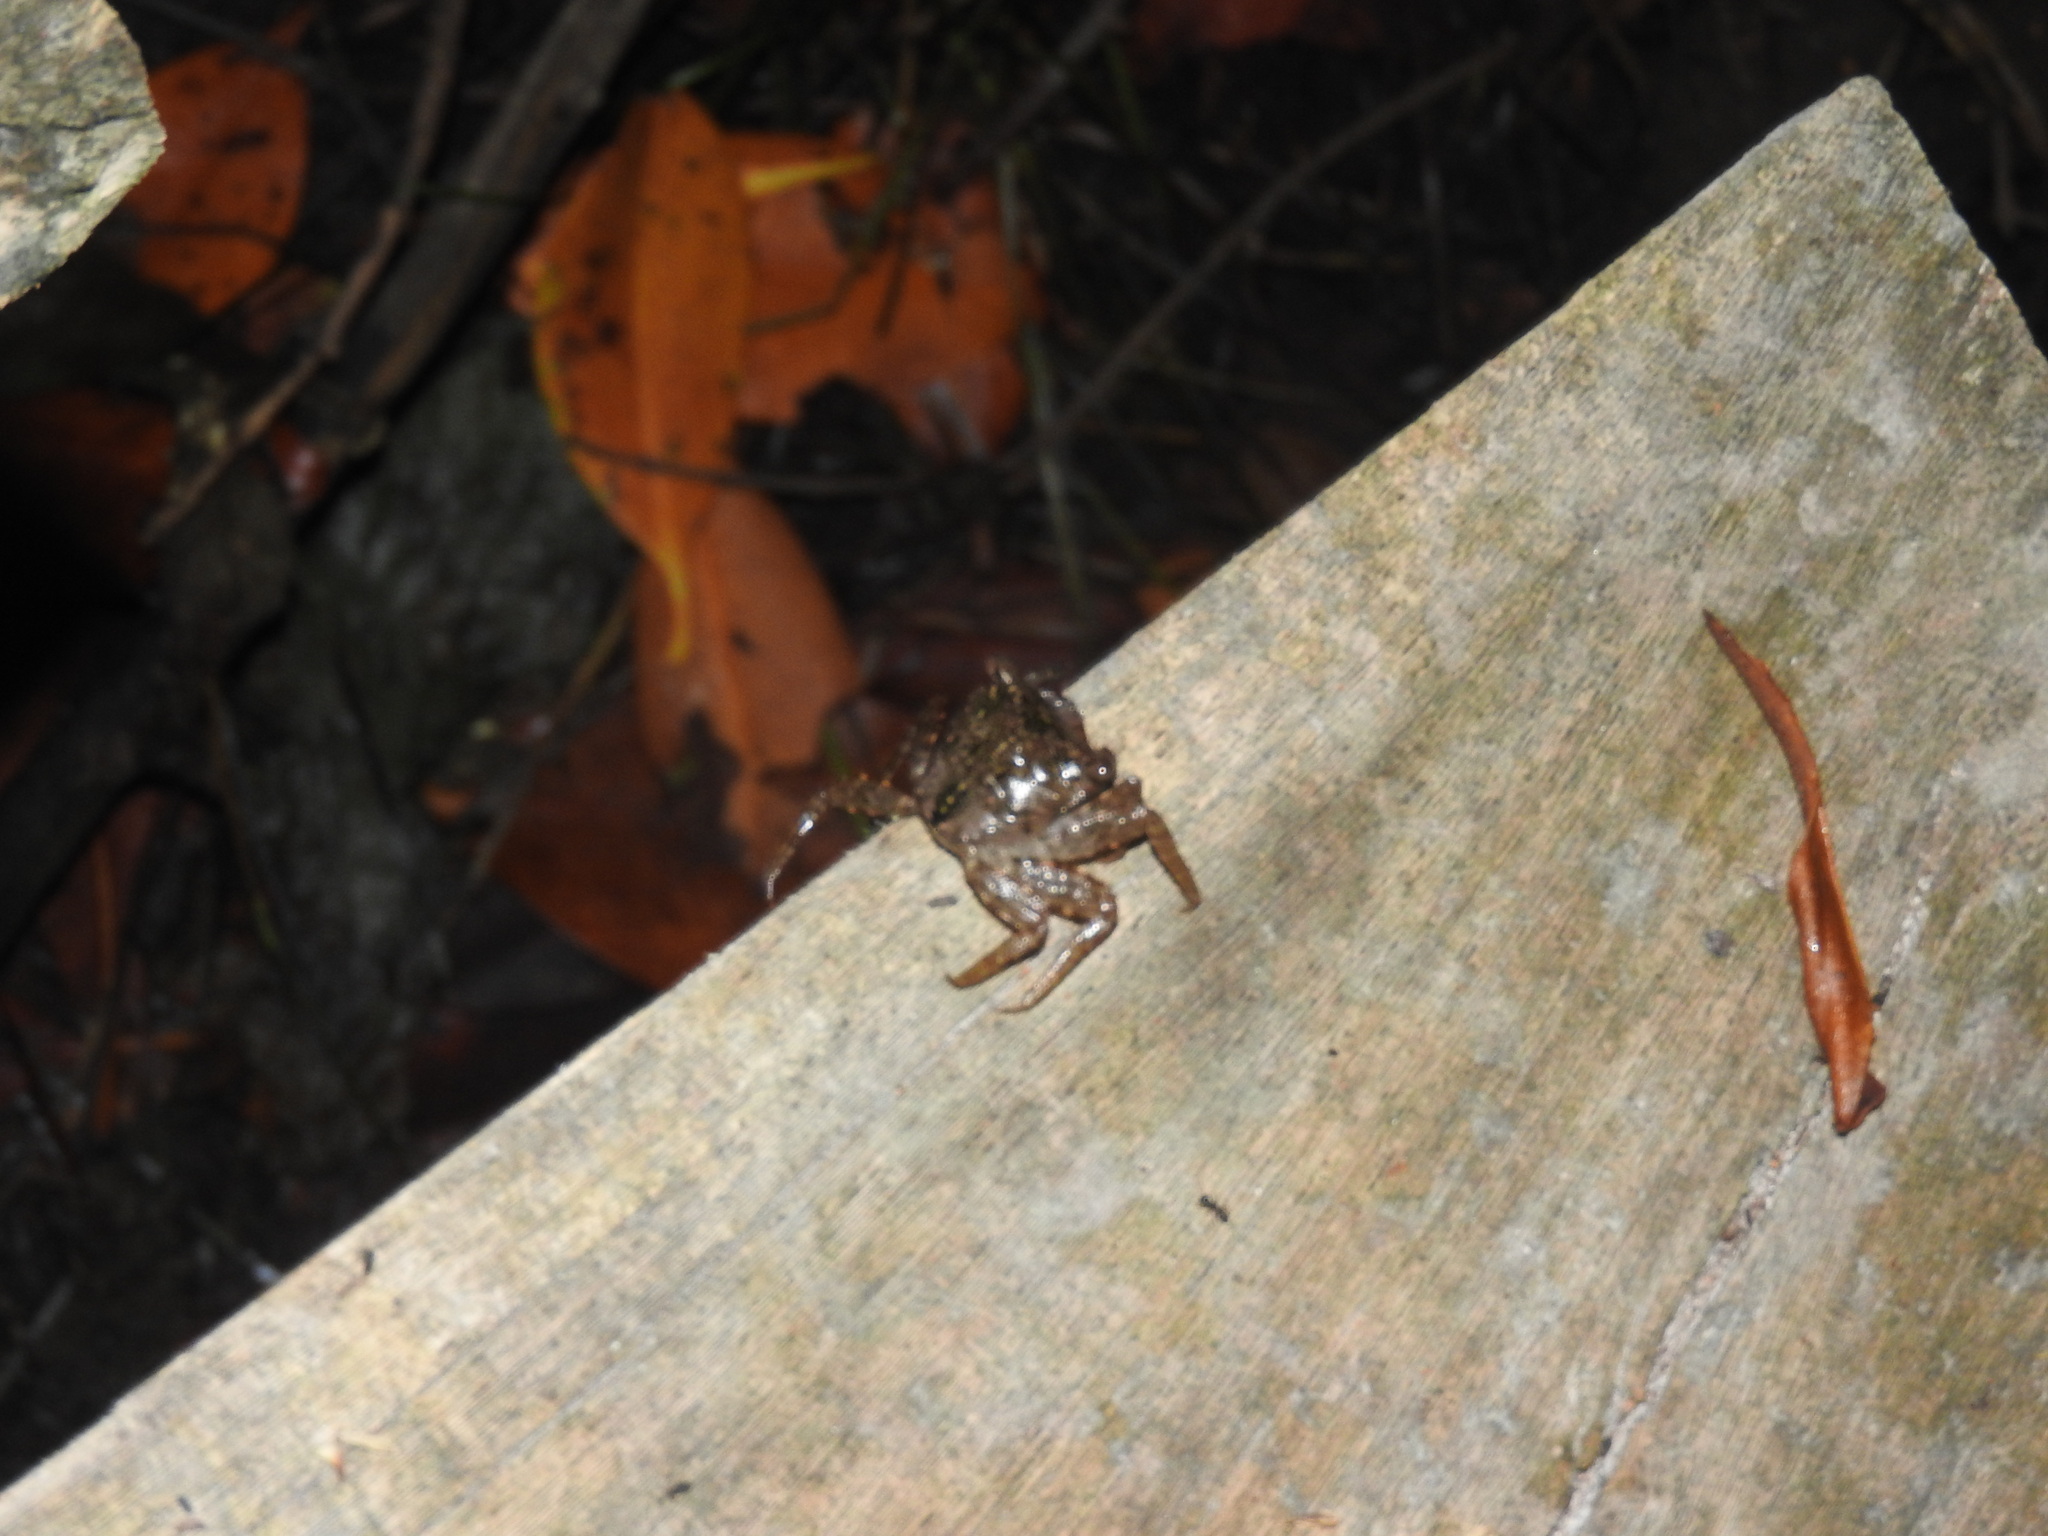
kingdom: Animalia
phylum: Arthropoda
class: Malacostraca
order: Decapoda
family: Sesarmidae
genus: Aratus
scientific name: Aratus pisonii
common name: Mangrove crab
